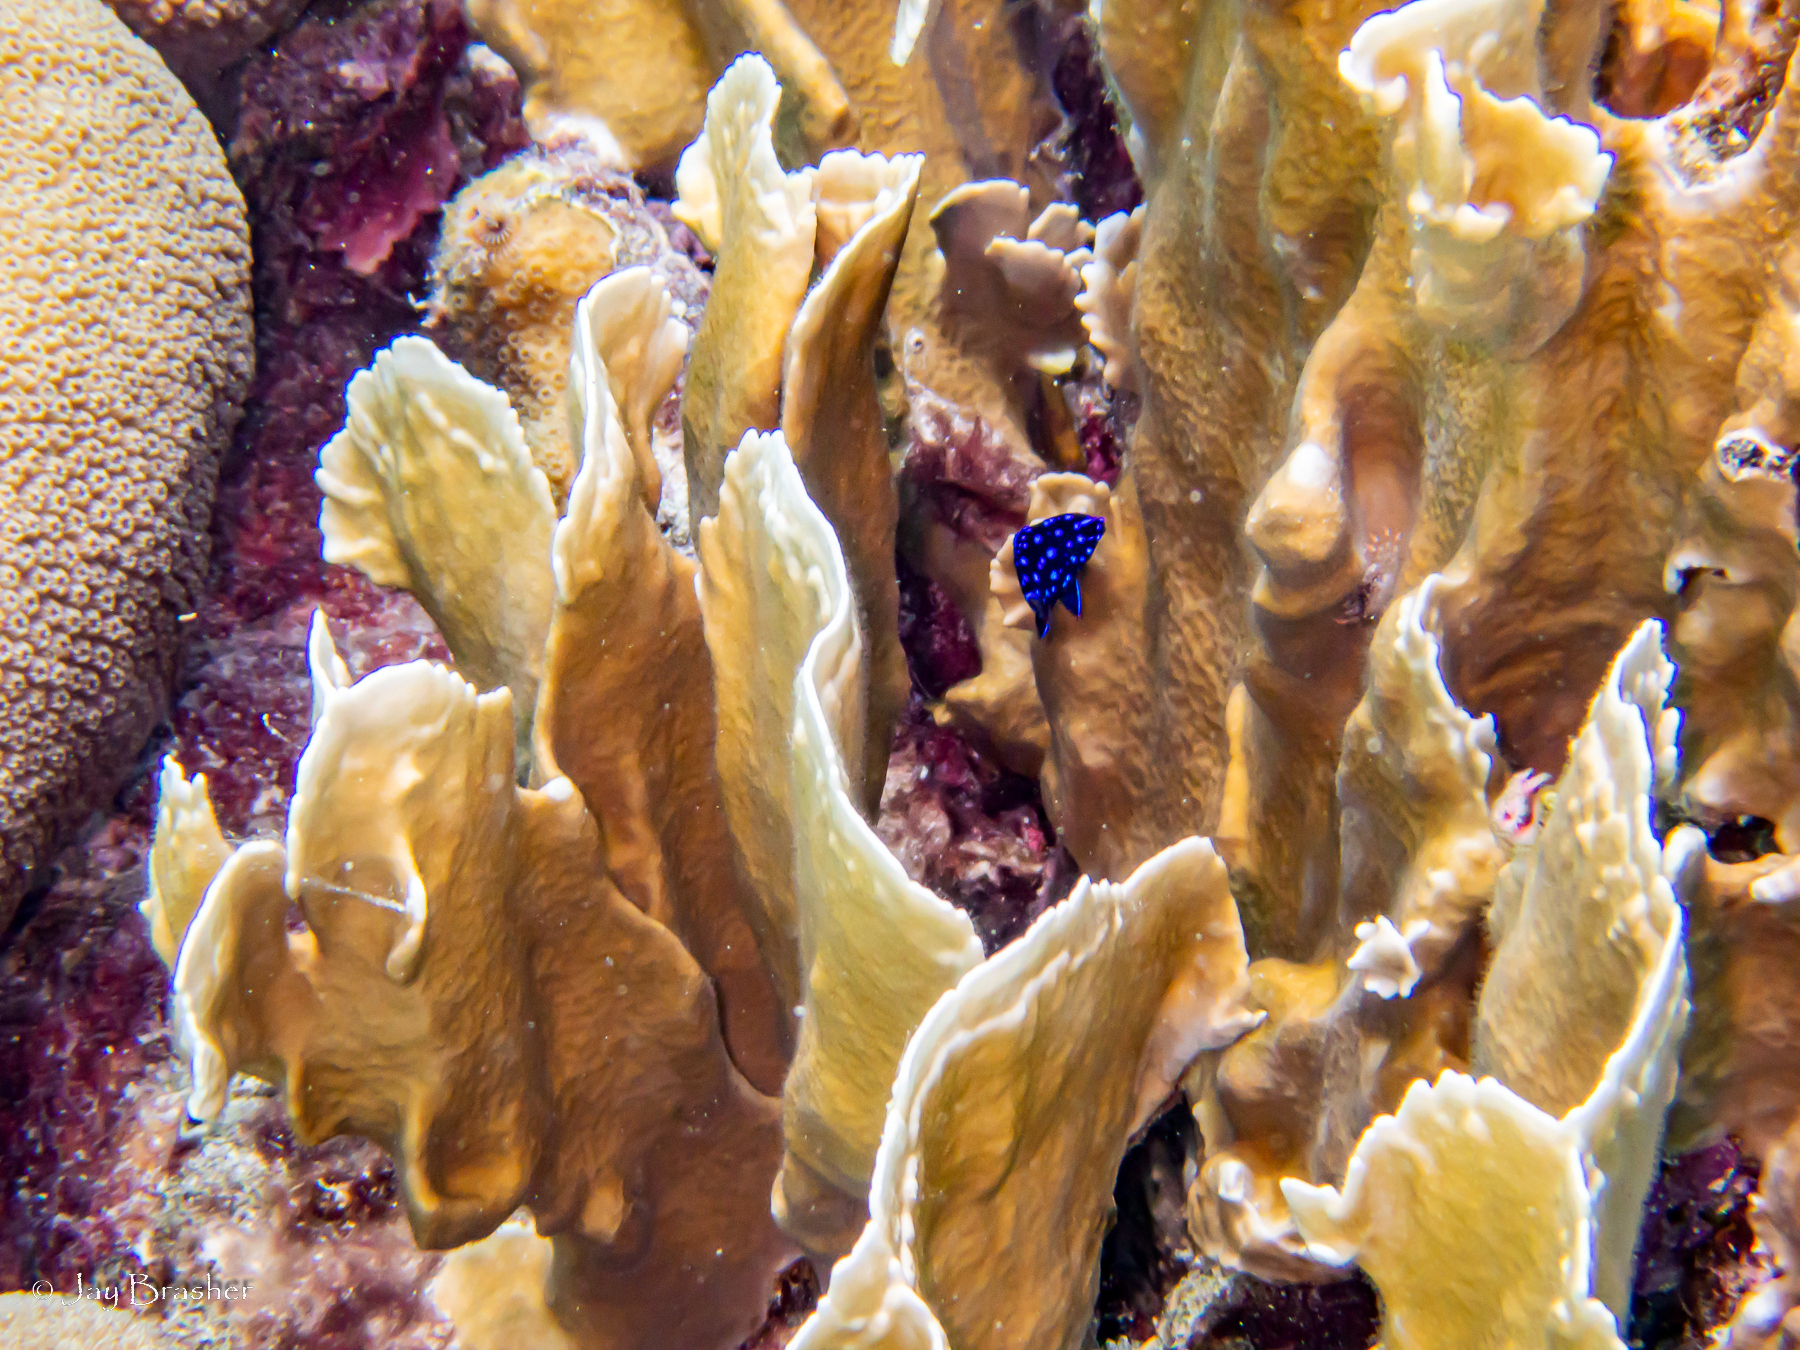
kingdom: Animalia
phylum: Cnidaria
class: Hydrozoa
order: Anthoathecata
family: Milleporidae
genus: Millepora
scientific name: Millepora complanata
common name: Bladed fire coral
